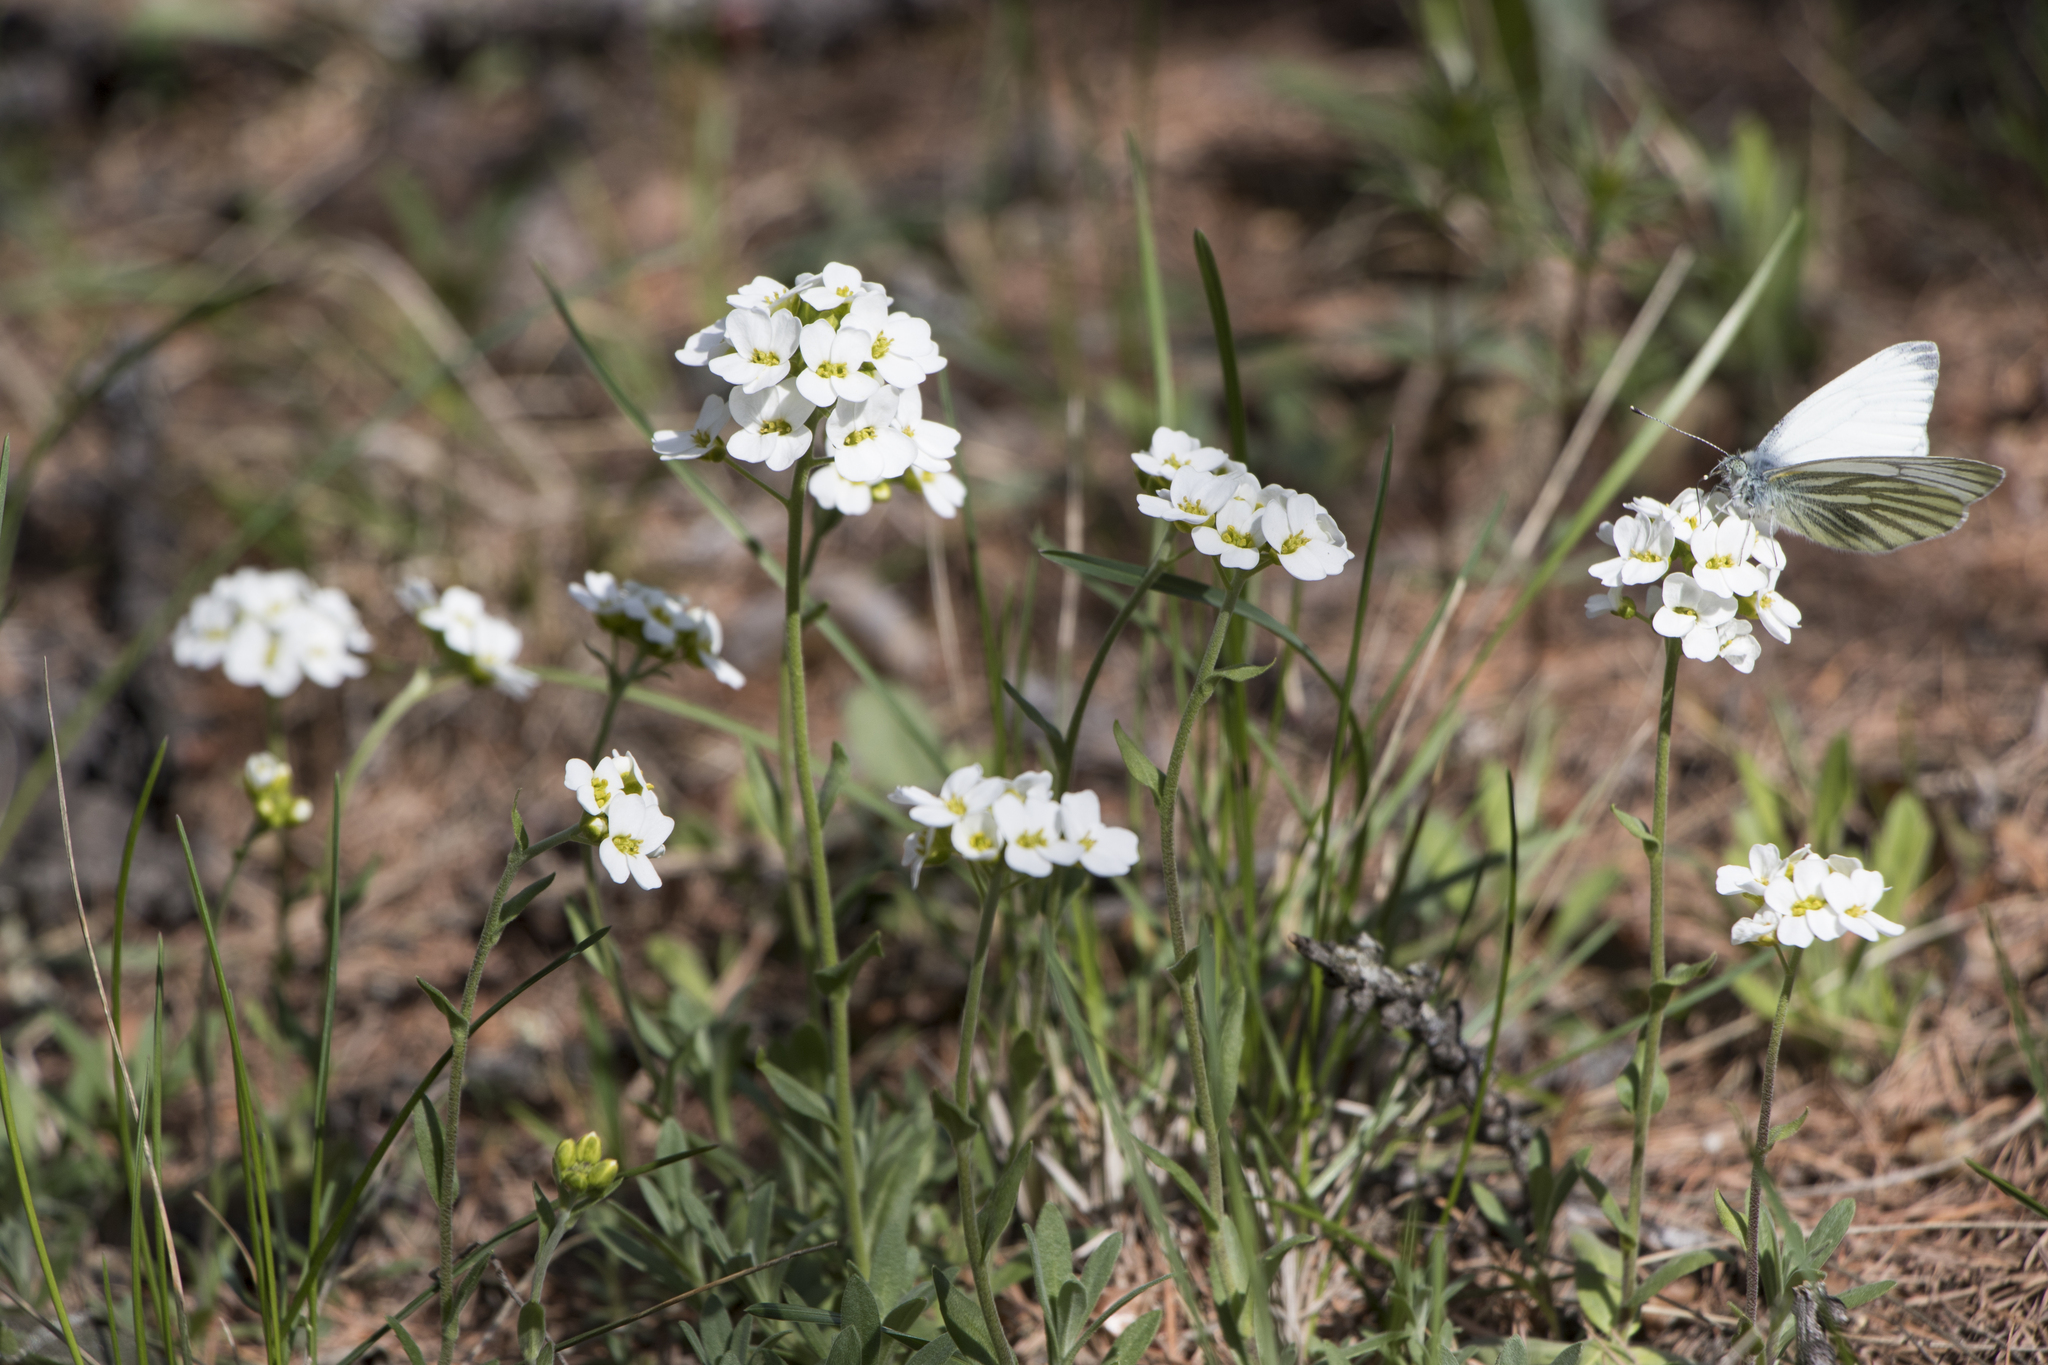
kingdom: Plantae
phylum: Tracheophyta
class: Magnoliopsida
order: Brassicales
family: Brassicaceae
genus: Draba
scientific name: Draba hyperborea
